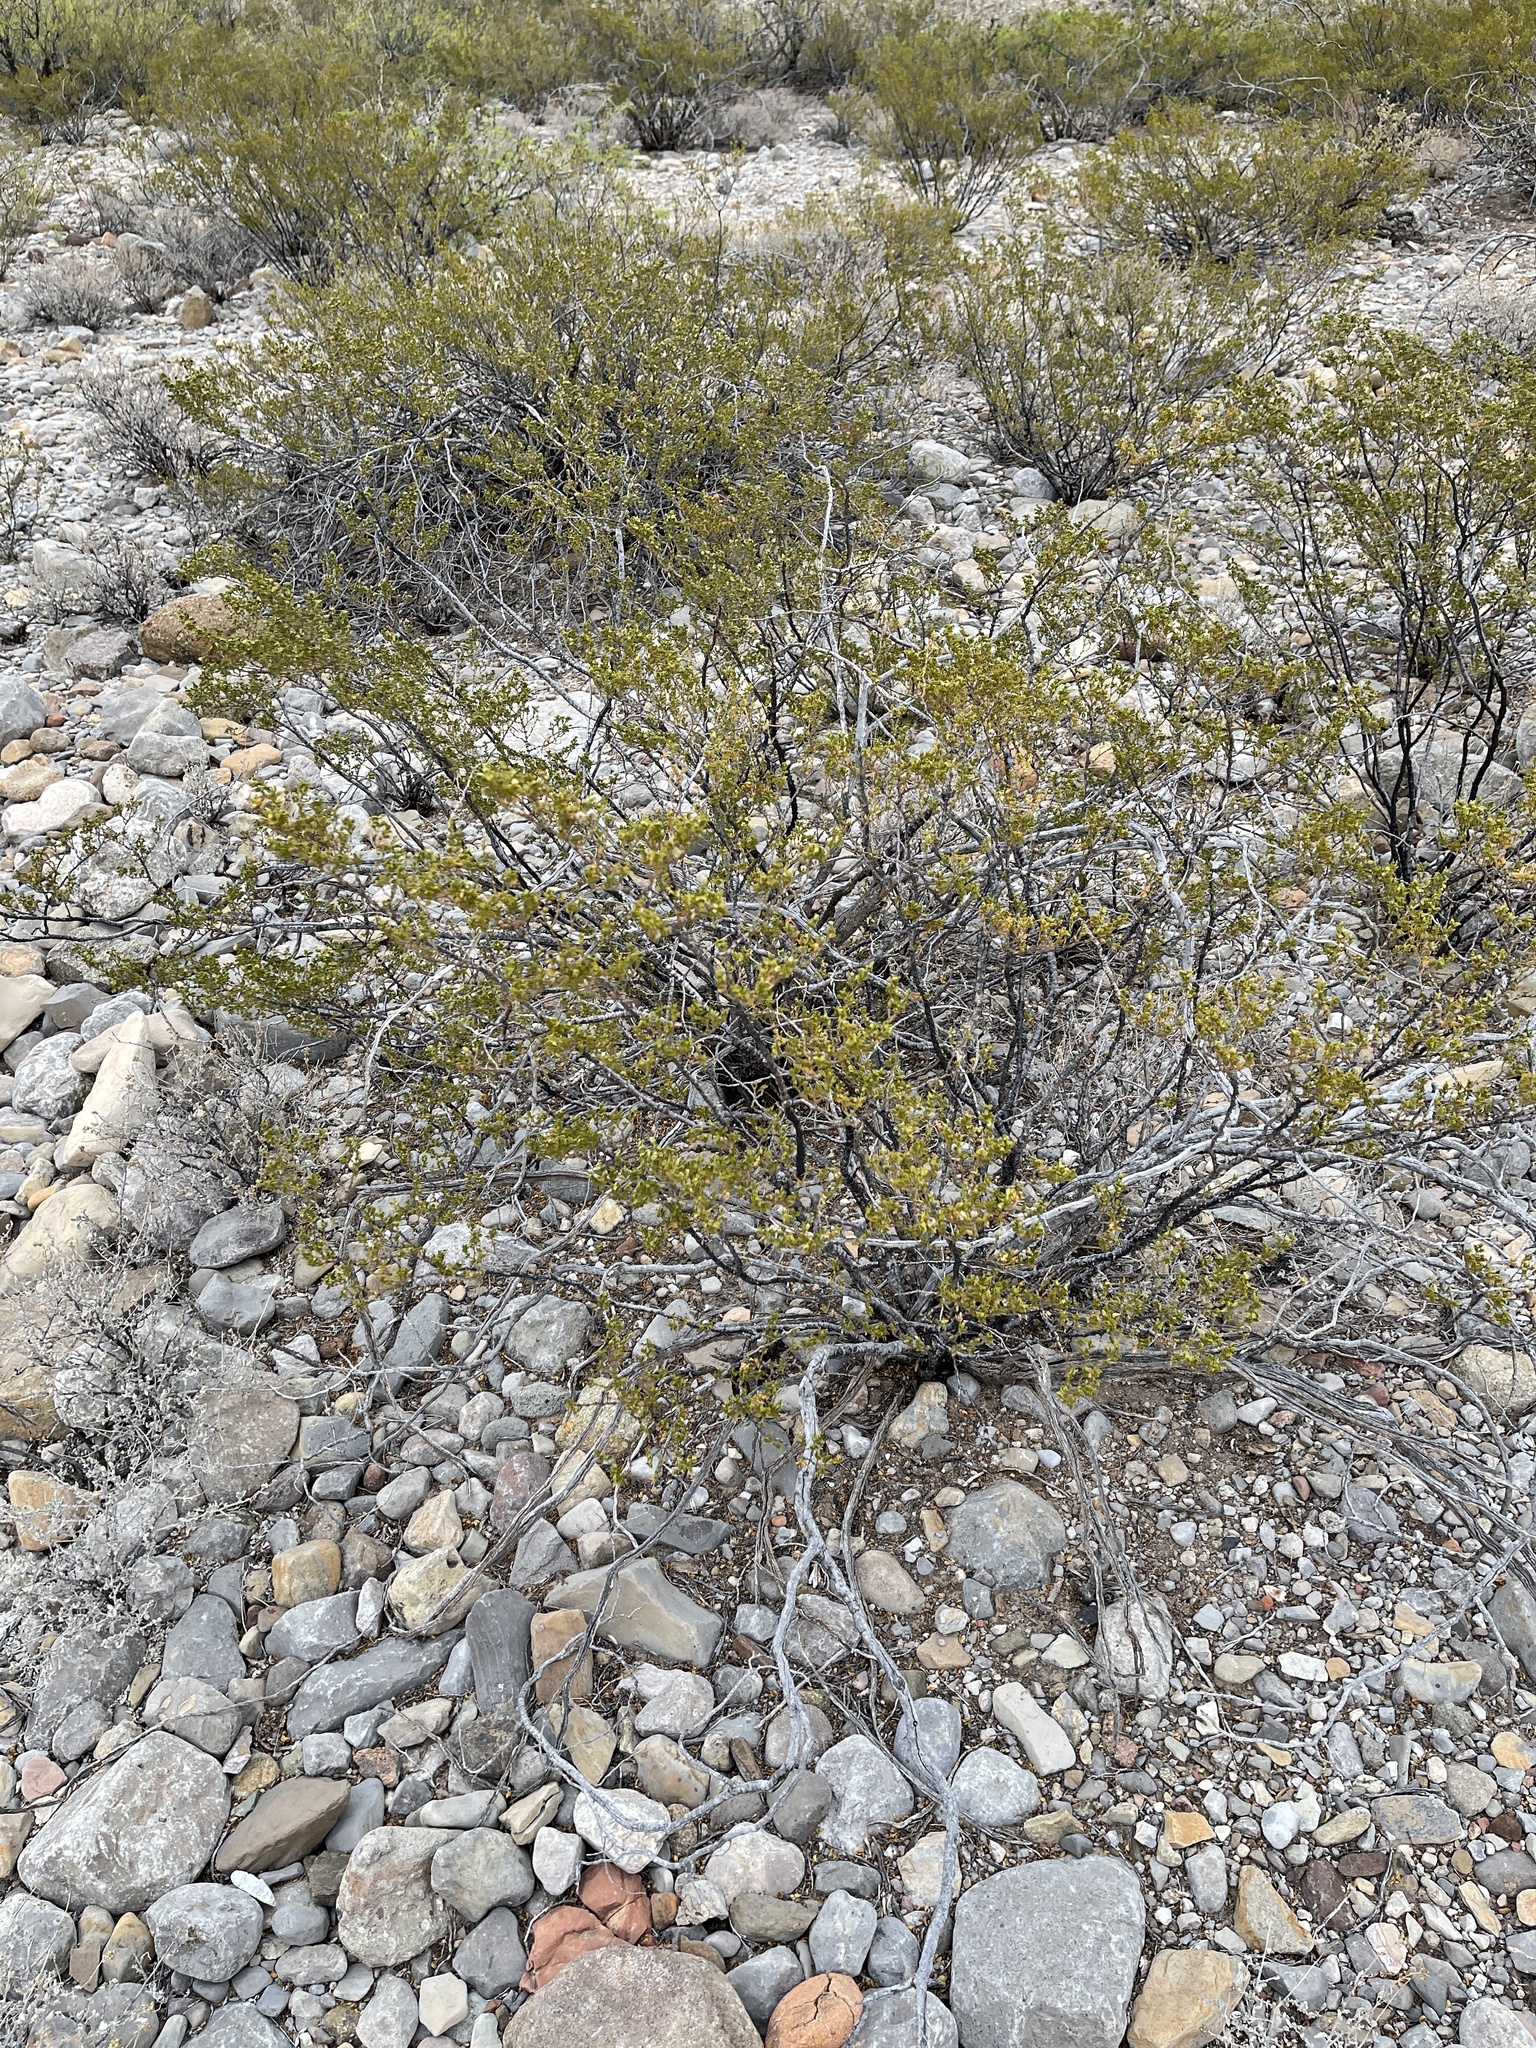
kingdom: Plantae
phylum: Tracheophyta
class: Magnoliopsida
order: Zygophyllales
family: Zygophyllaceae
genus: Larrea
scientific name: Larrea tridentata
